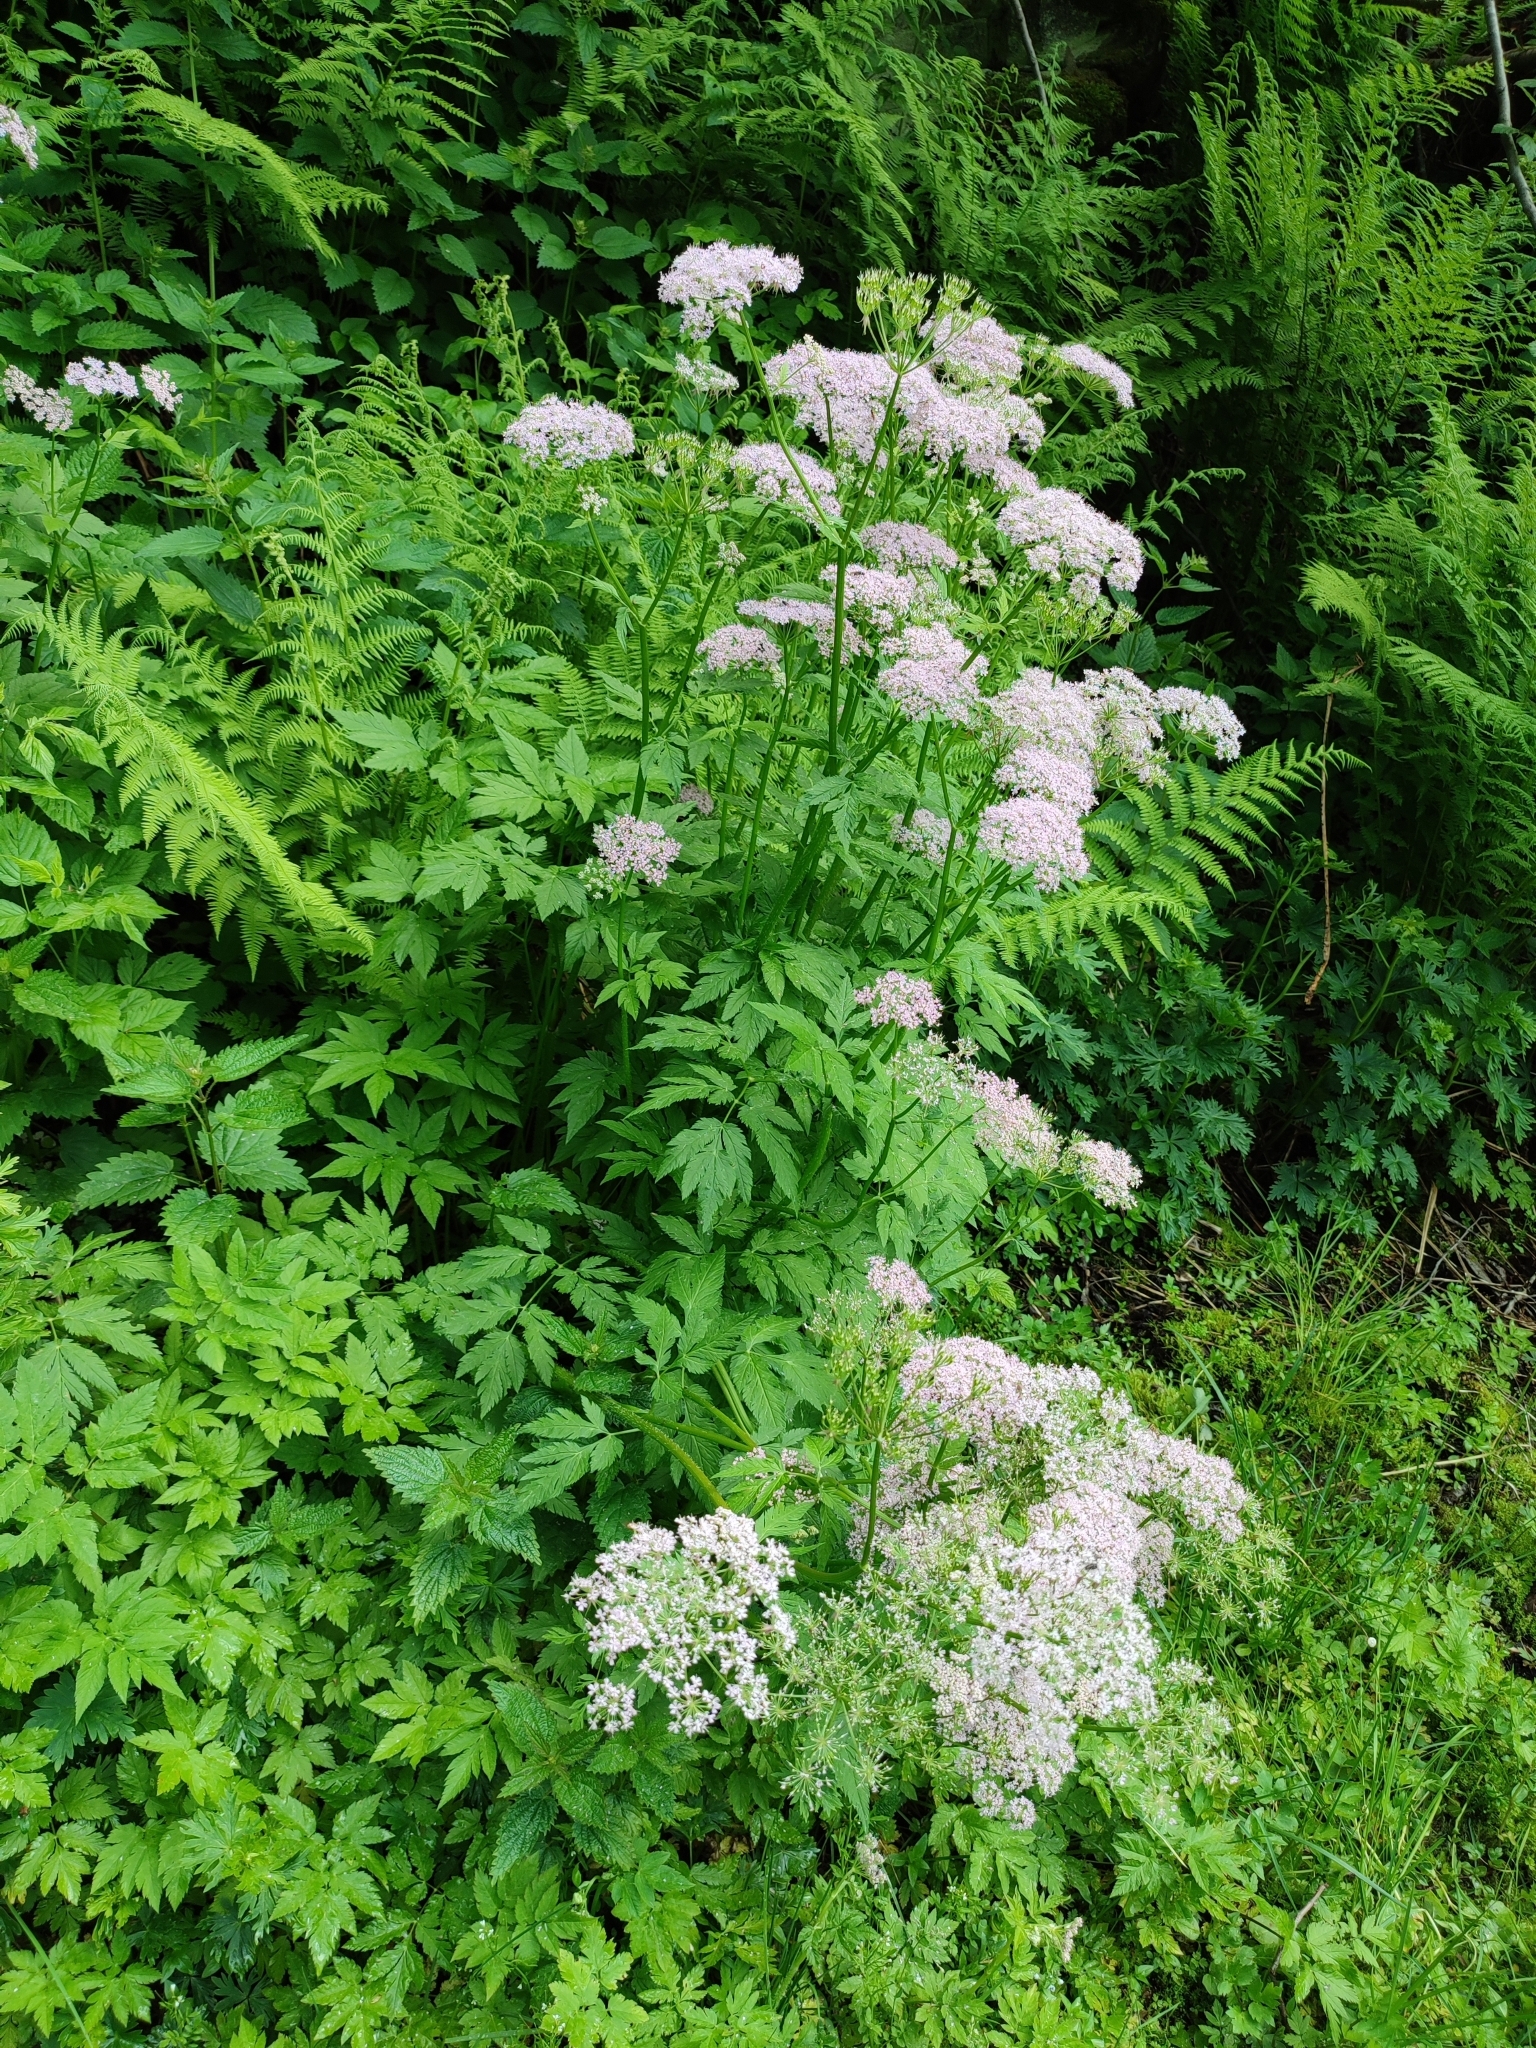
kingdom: Plantae
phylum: Tracheophyta
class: Magnoliopsida
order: Apiales
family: Apiaceae
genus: Chaerophyllum
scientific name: Chaerophyllum hirsutum
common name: Hairy chervil
